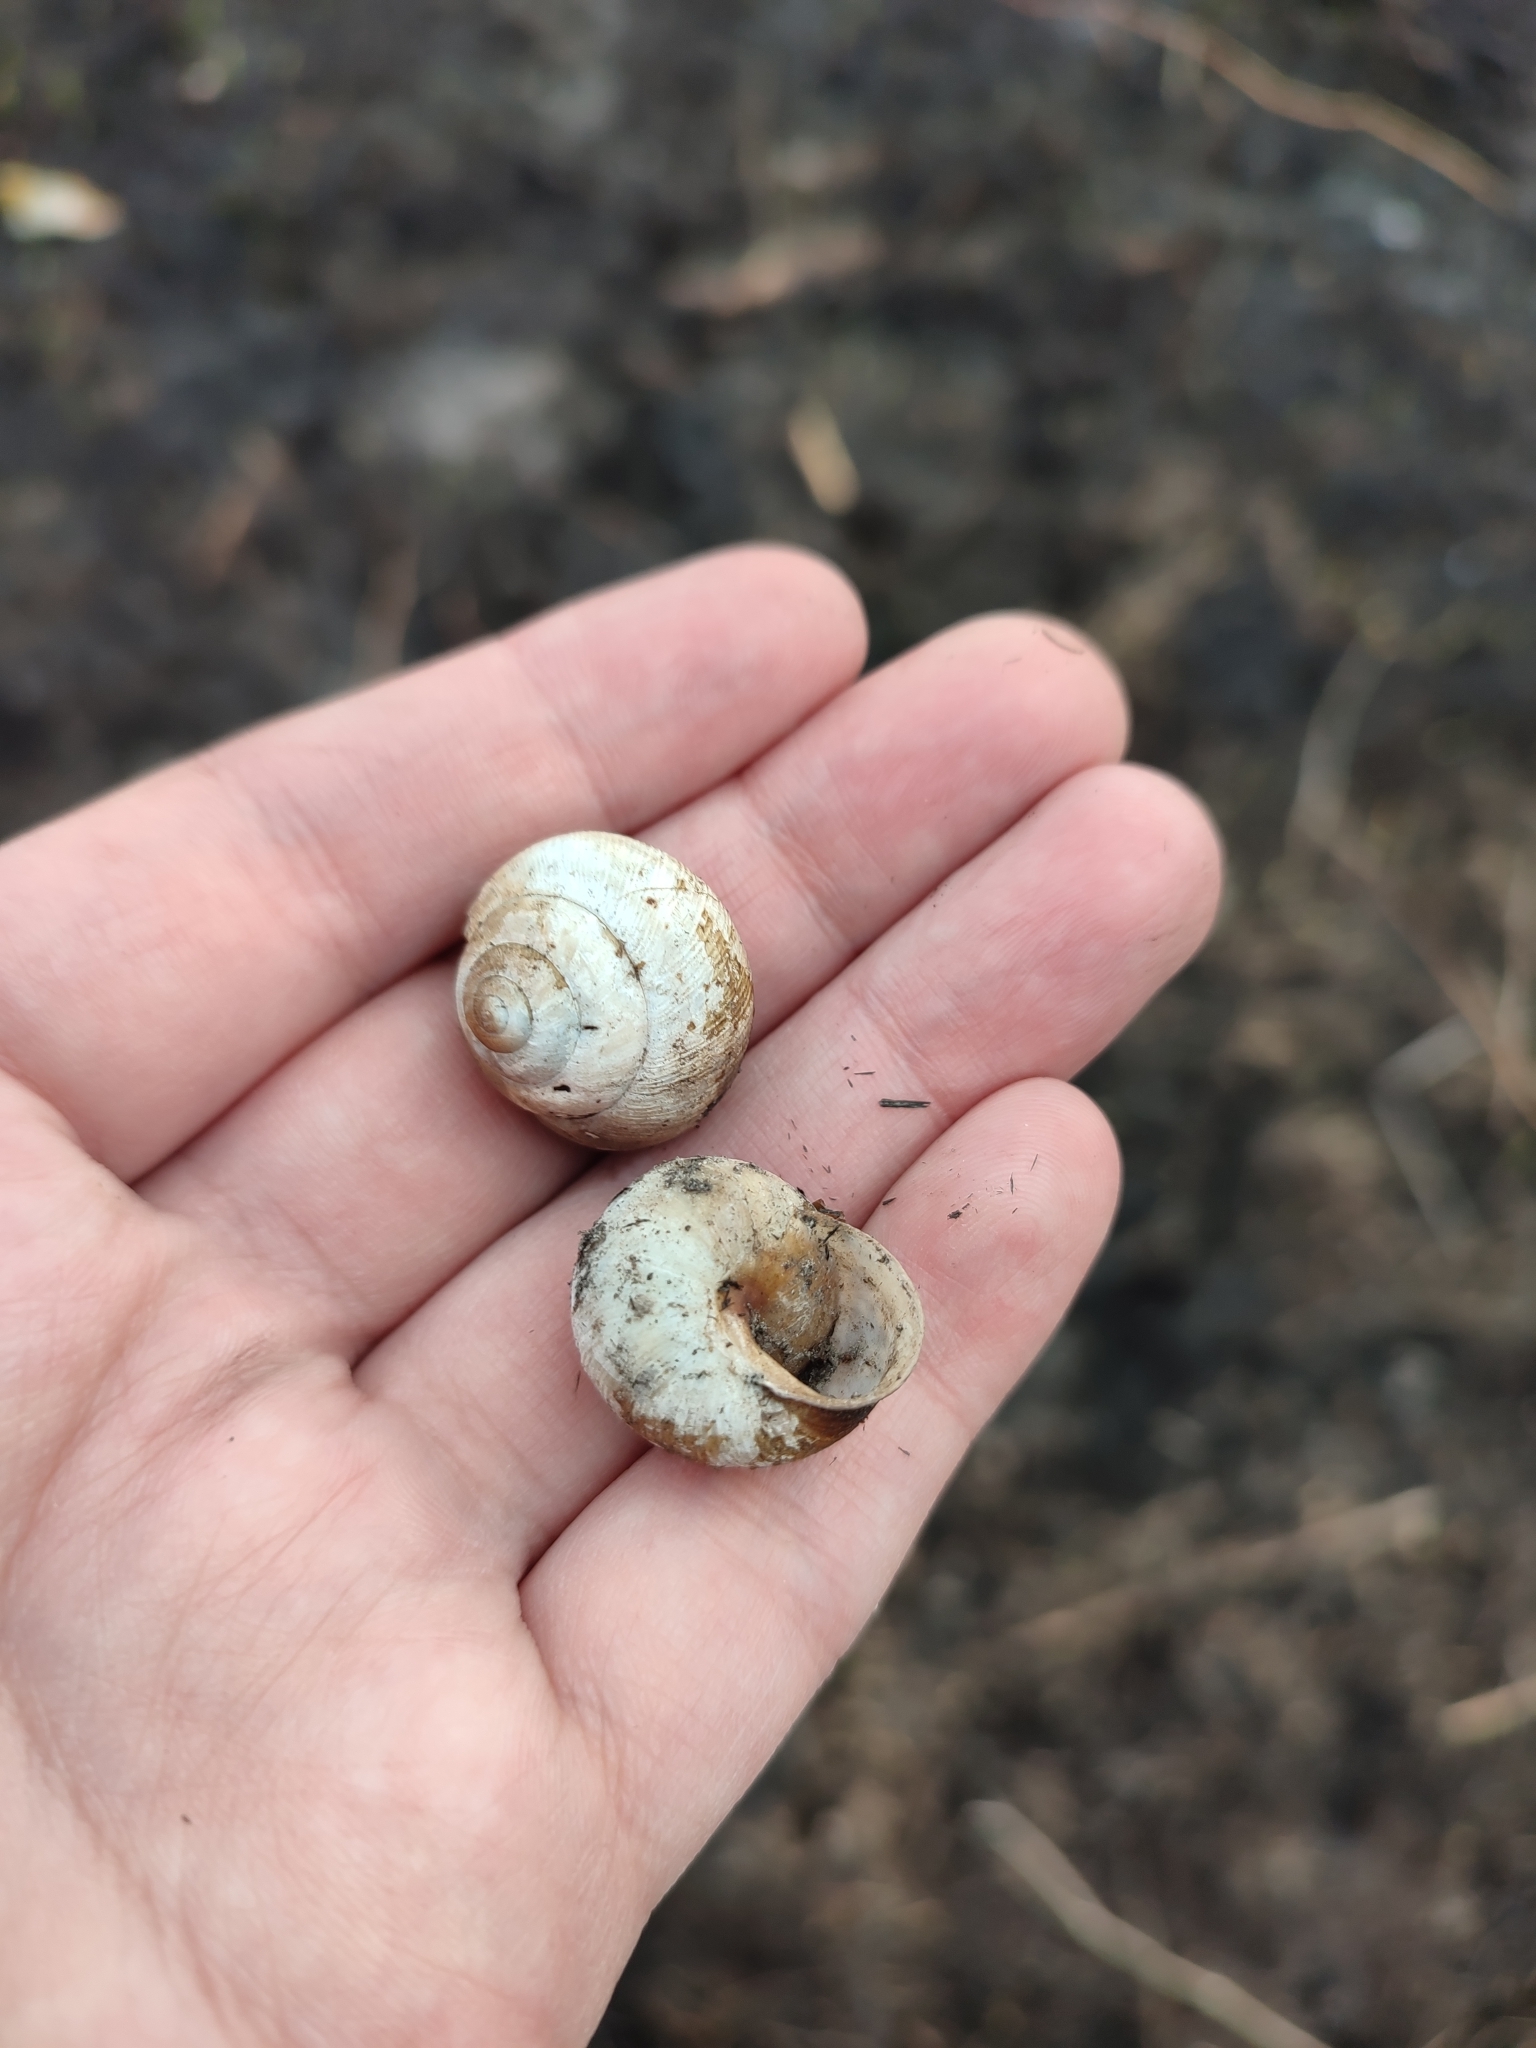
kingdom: Animalia
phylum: Mollusca
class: Gastropoda
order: Stylommatophora
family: Helicidae
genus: Caucasotachea
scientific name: Caucasotachea vindobonensis
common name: European helicid land snail
